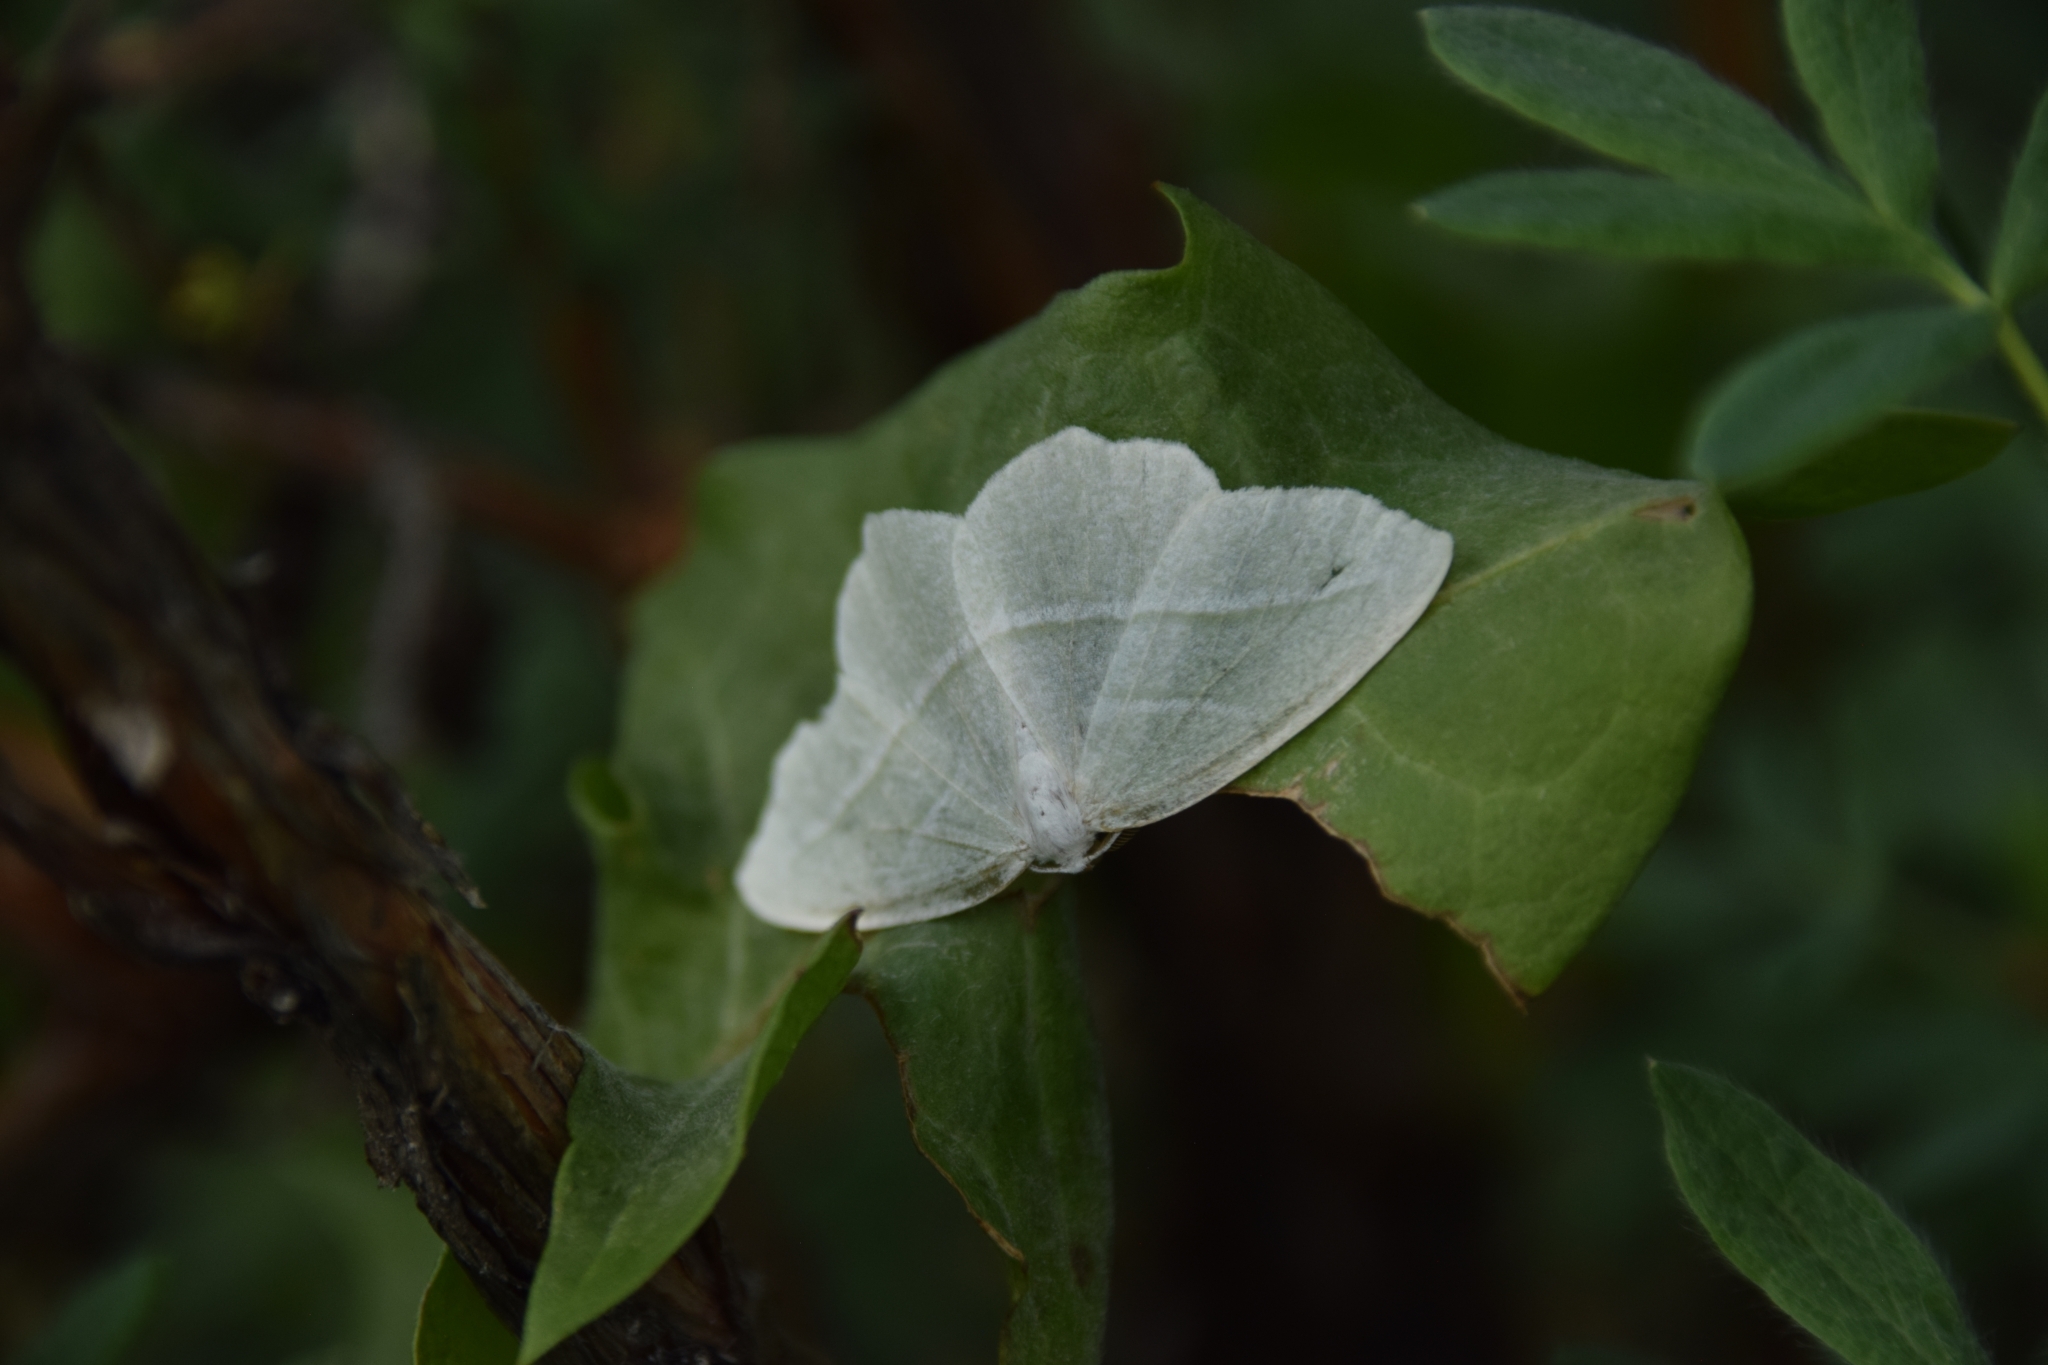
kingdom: Animalia
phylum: Arthropoda
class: Insecta
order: Lepidoptera
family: Geometridae
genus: Campaea
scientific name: Campaea perlata
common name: Fringed looper
